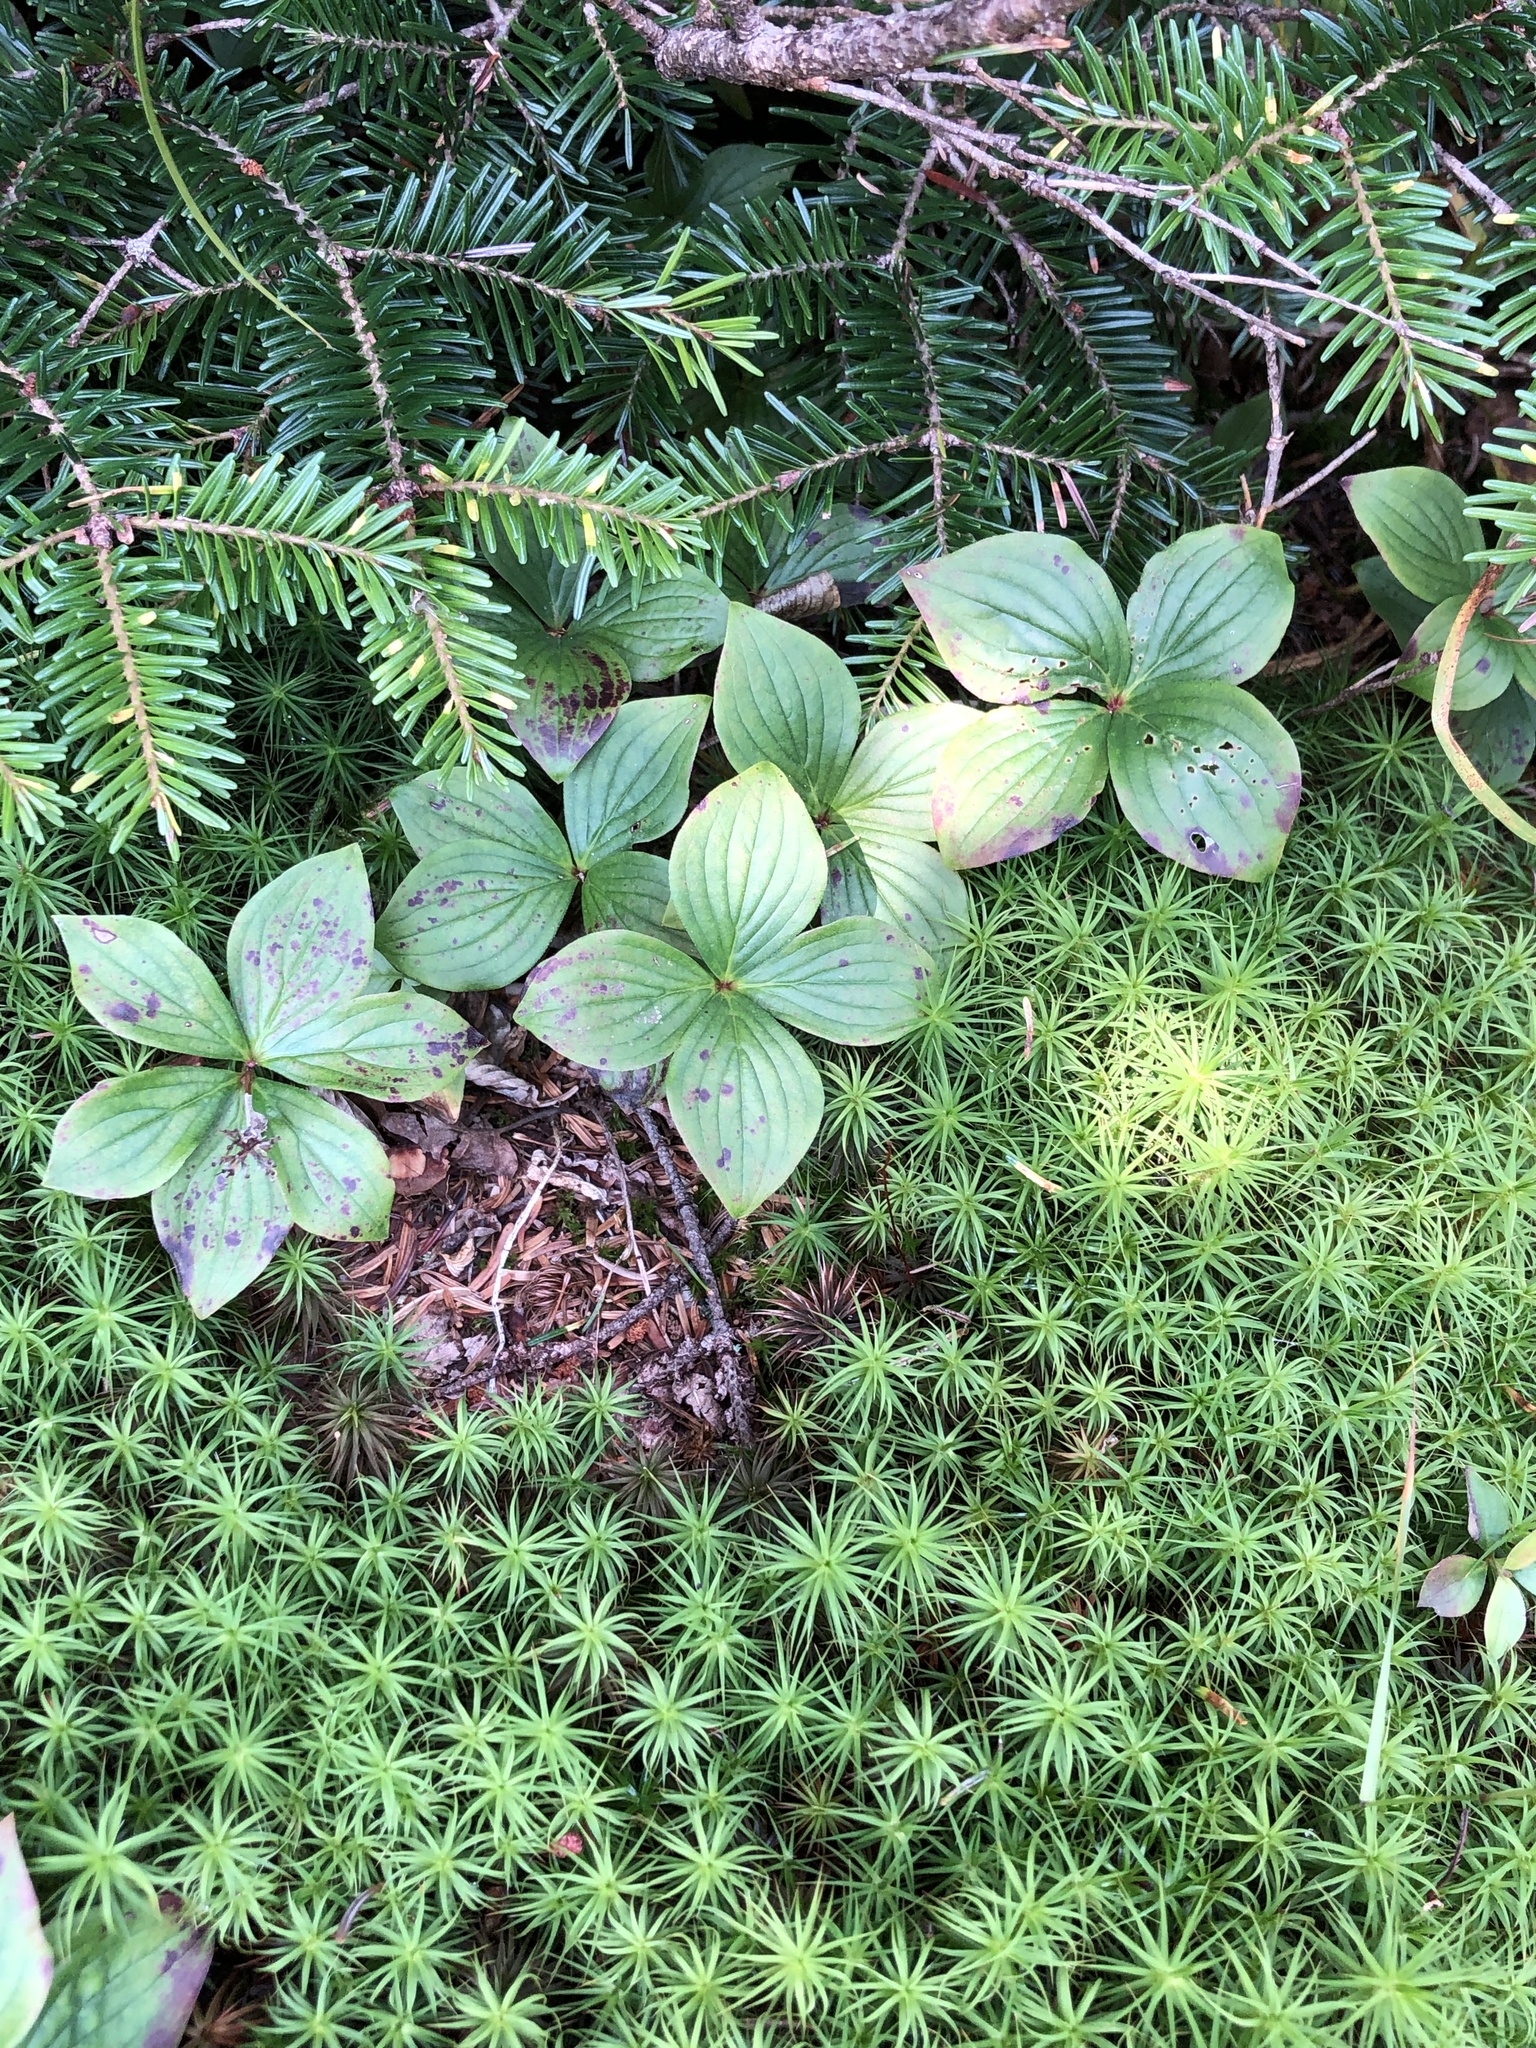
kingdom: Plantae
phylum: Tracheophyta
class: Magnoliopsida
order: Cornales
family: Cornaceae
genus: Cornus
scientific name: Cornus canadensis
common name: Creeping dogwood
